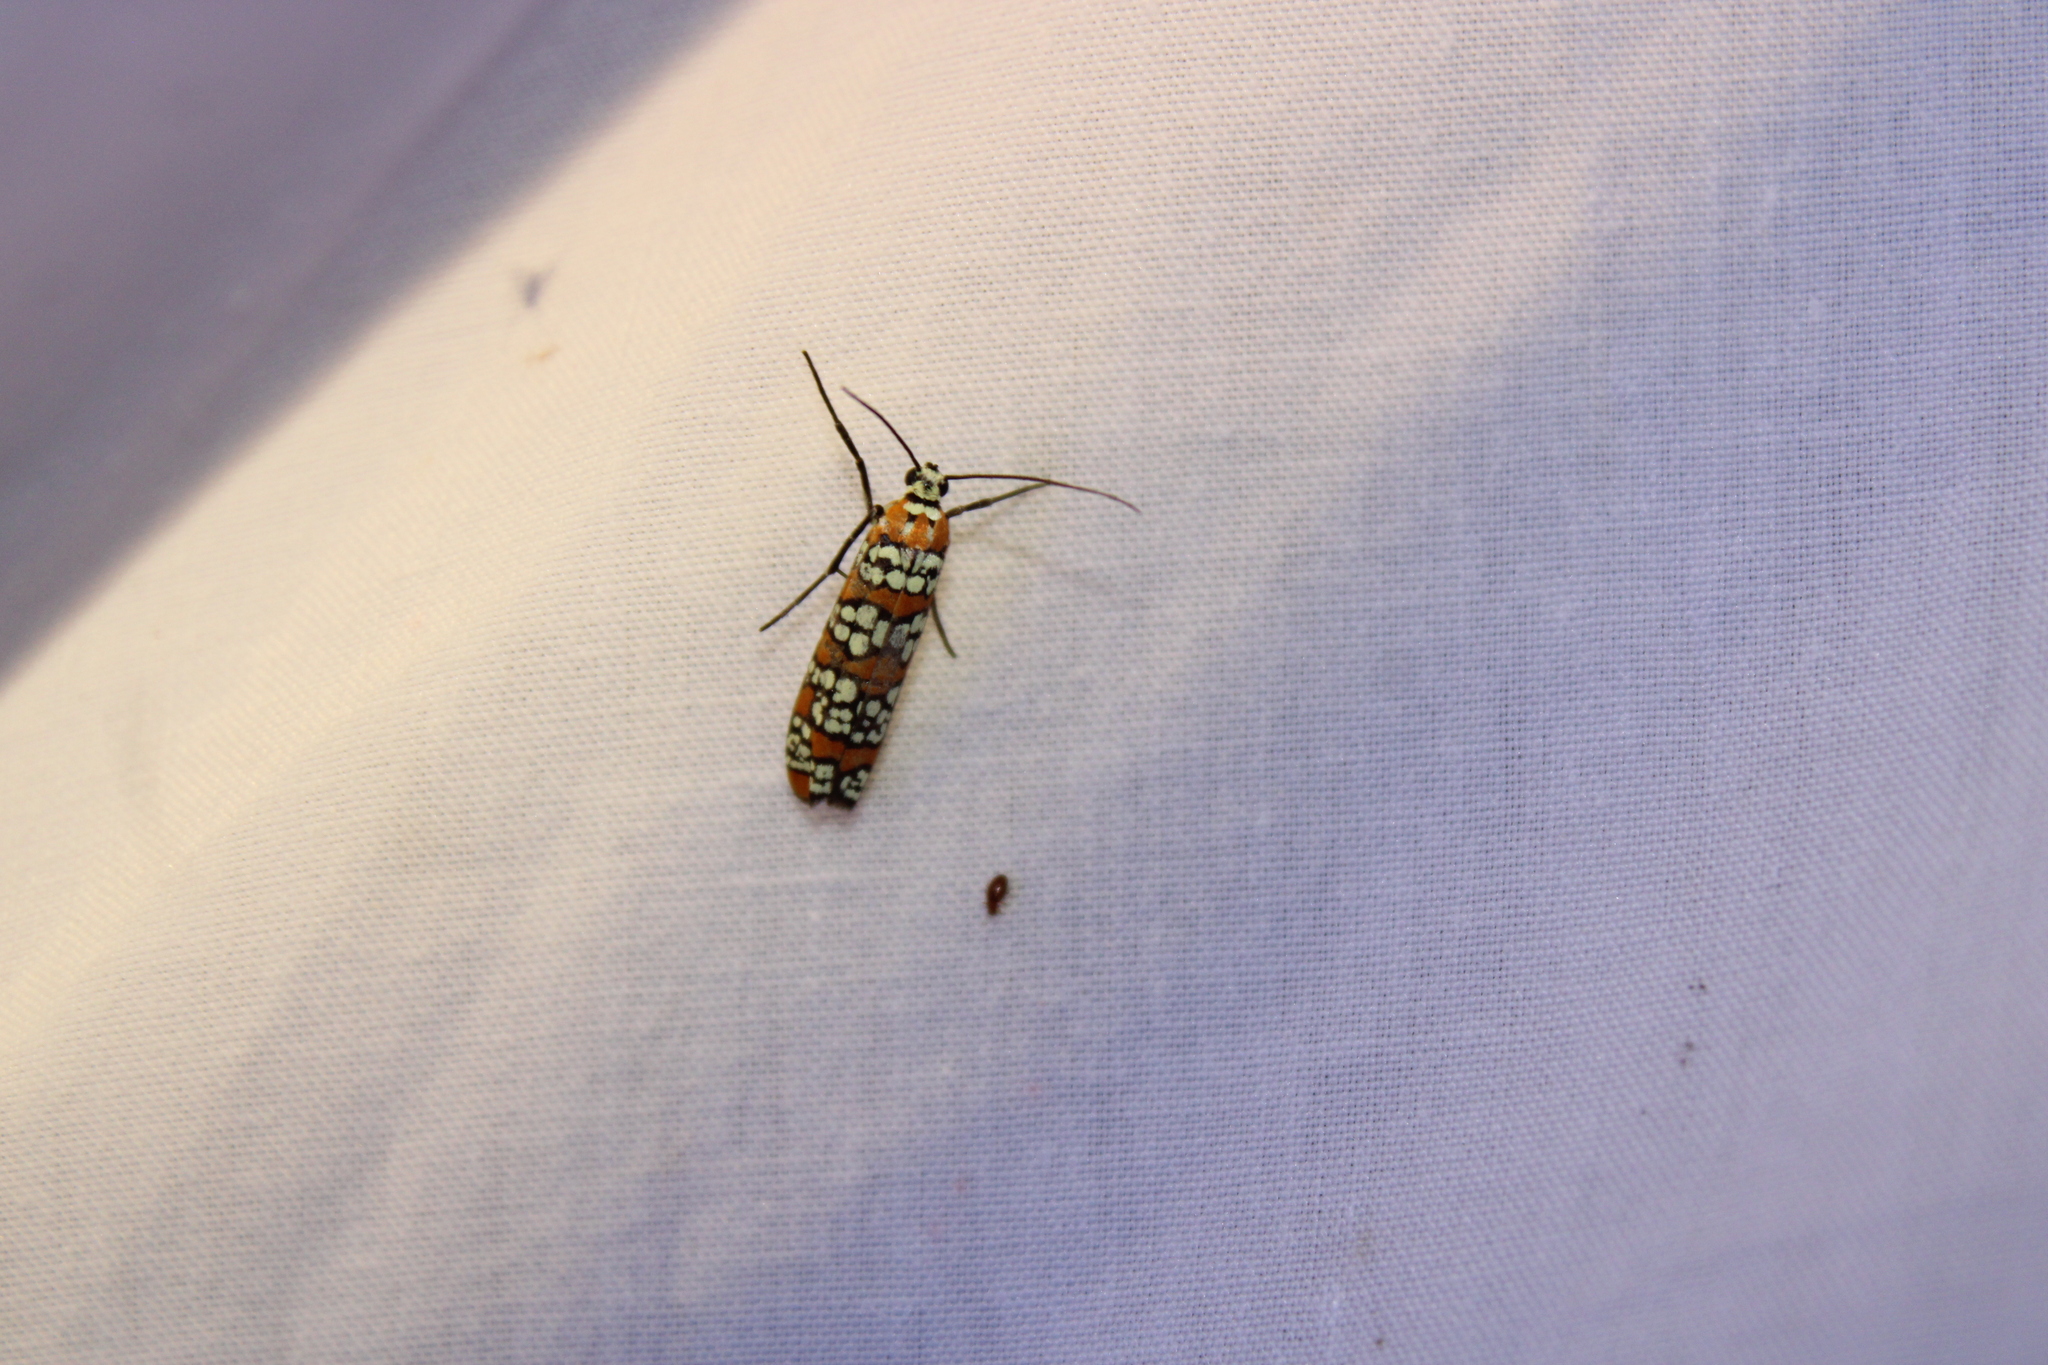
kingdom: Animalia
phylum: Arthropoda
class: Insecta
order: Lepidoptera
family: Attevidae
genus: Atteva
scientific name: Atteva punctella
